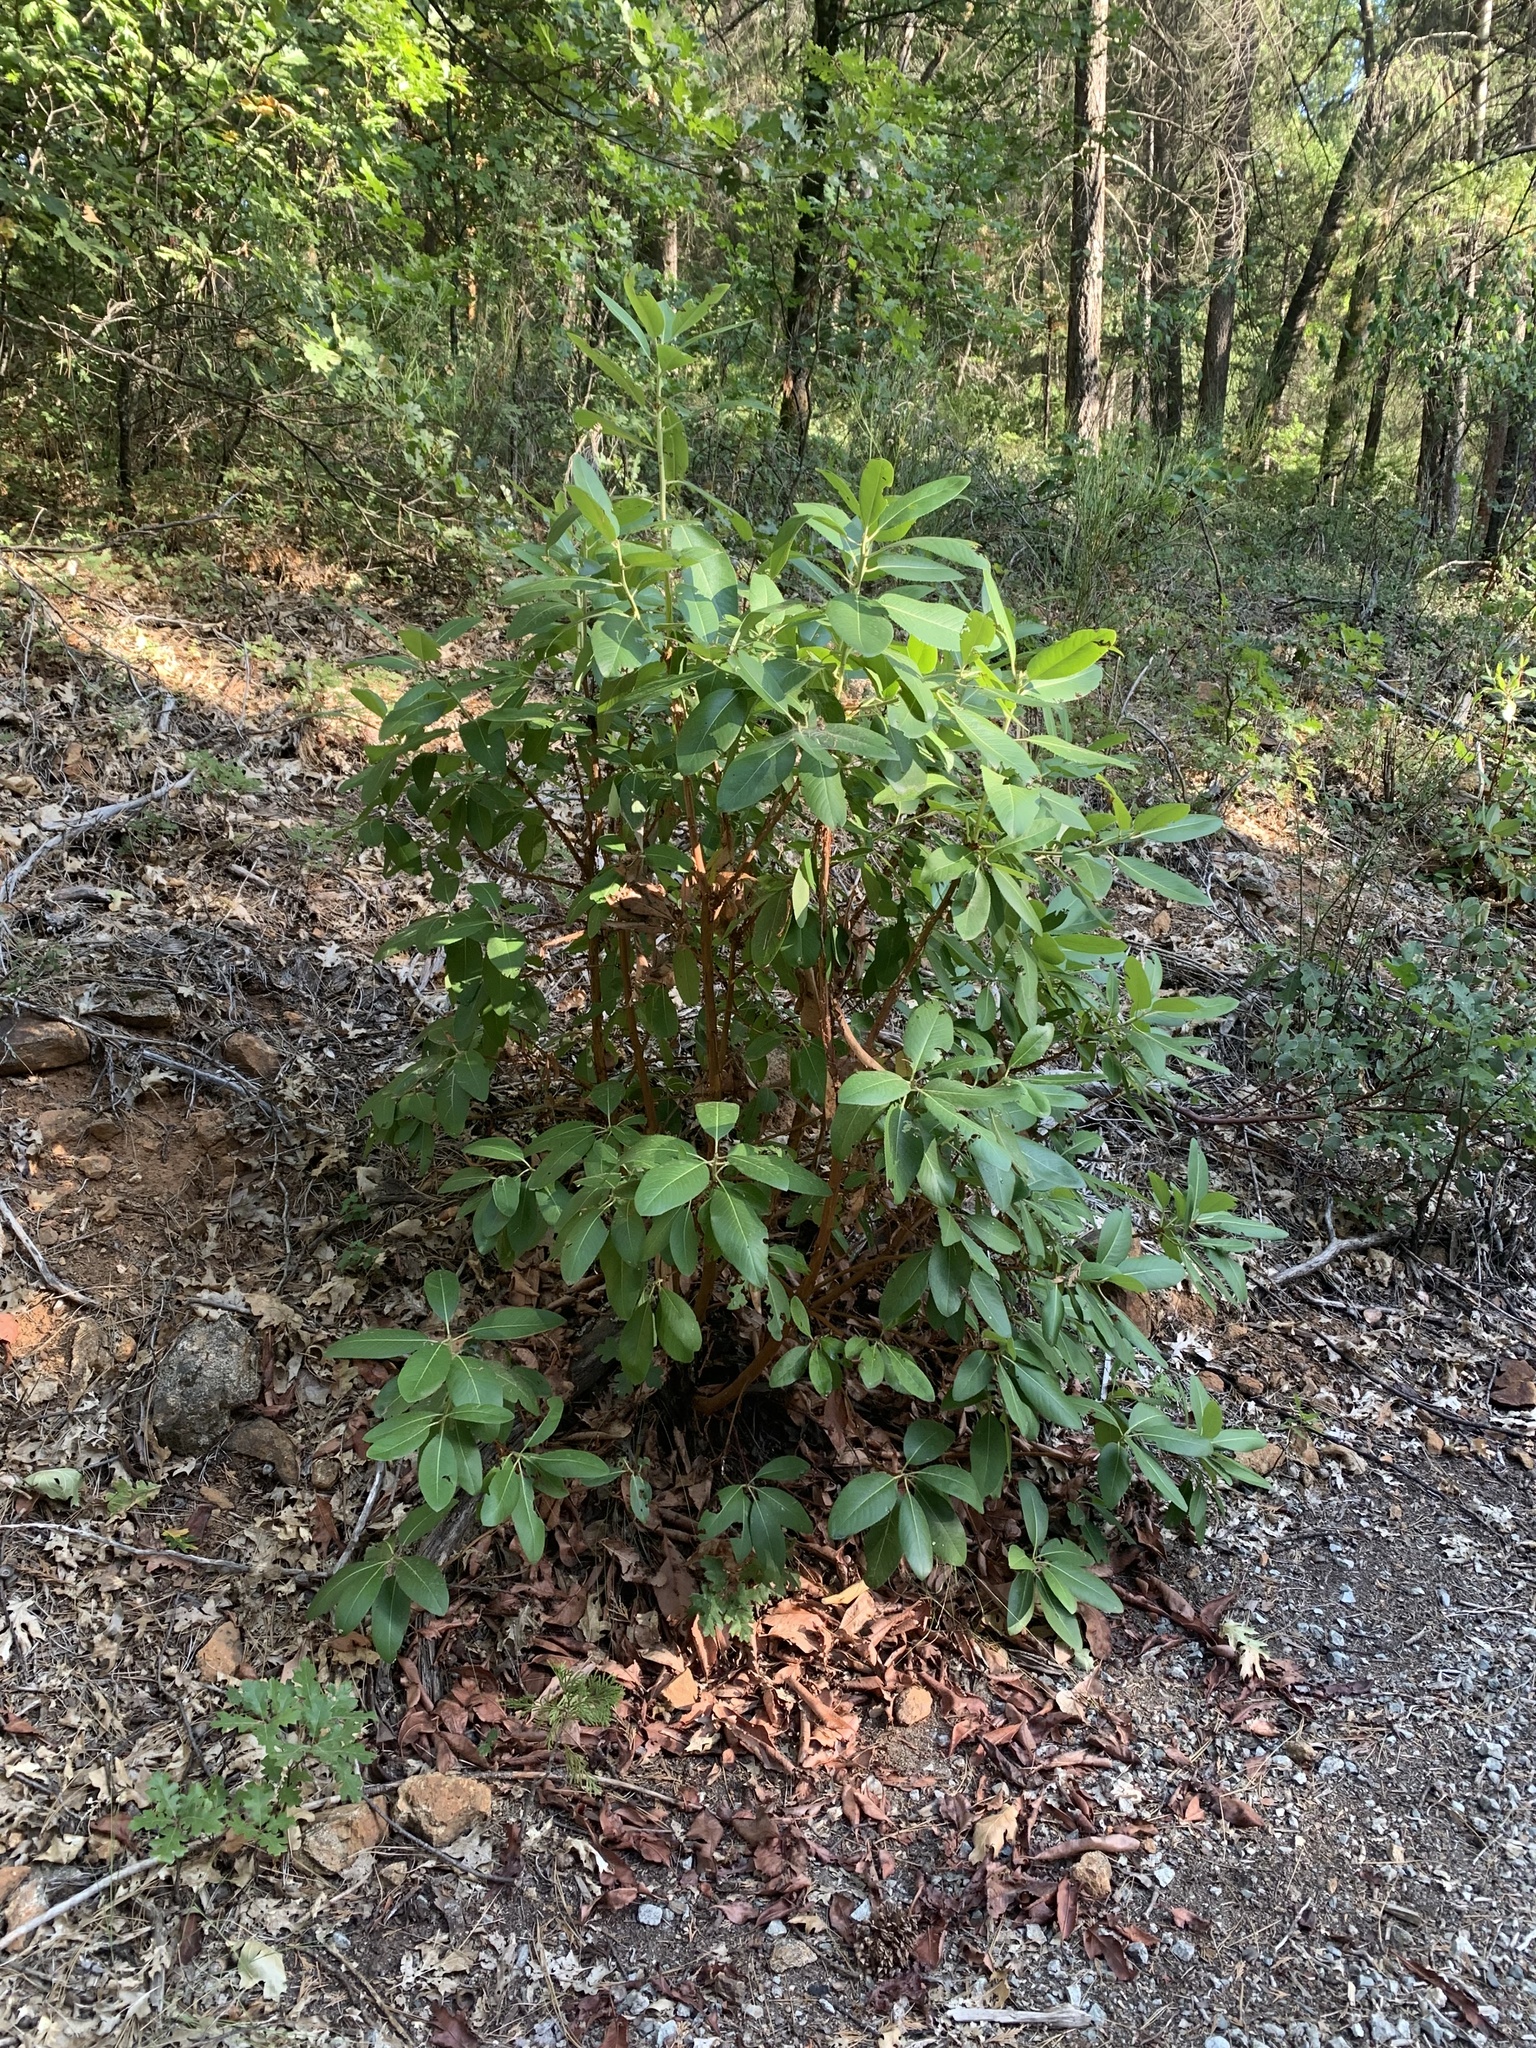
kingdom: Plantae
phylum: Tracheophyta
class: Magnoliopsida
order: Ericales
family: Ericaceae
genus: Arbutus
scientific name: Arbutus menziesii
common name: Pacific madrone
